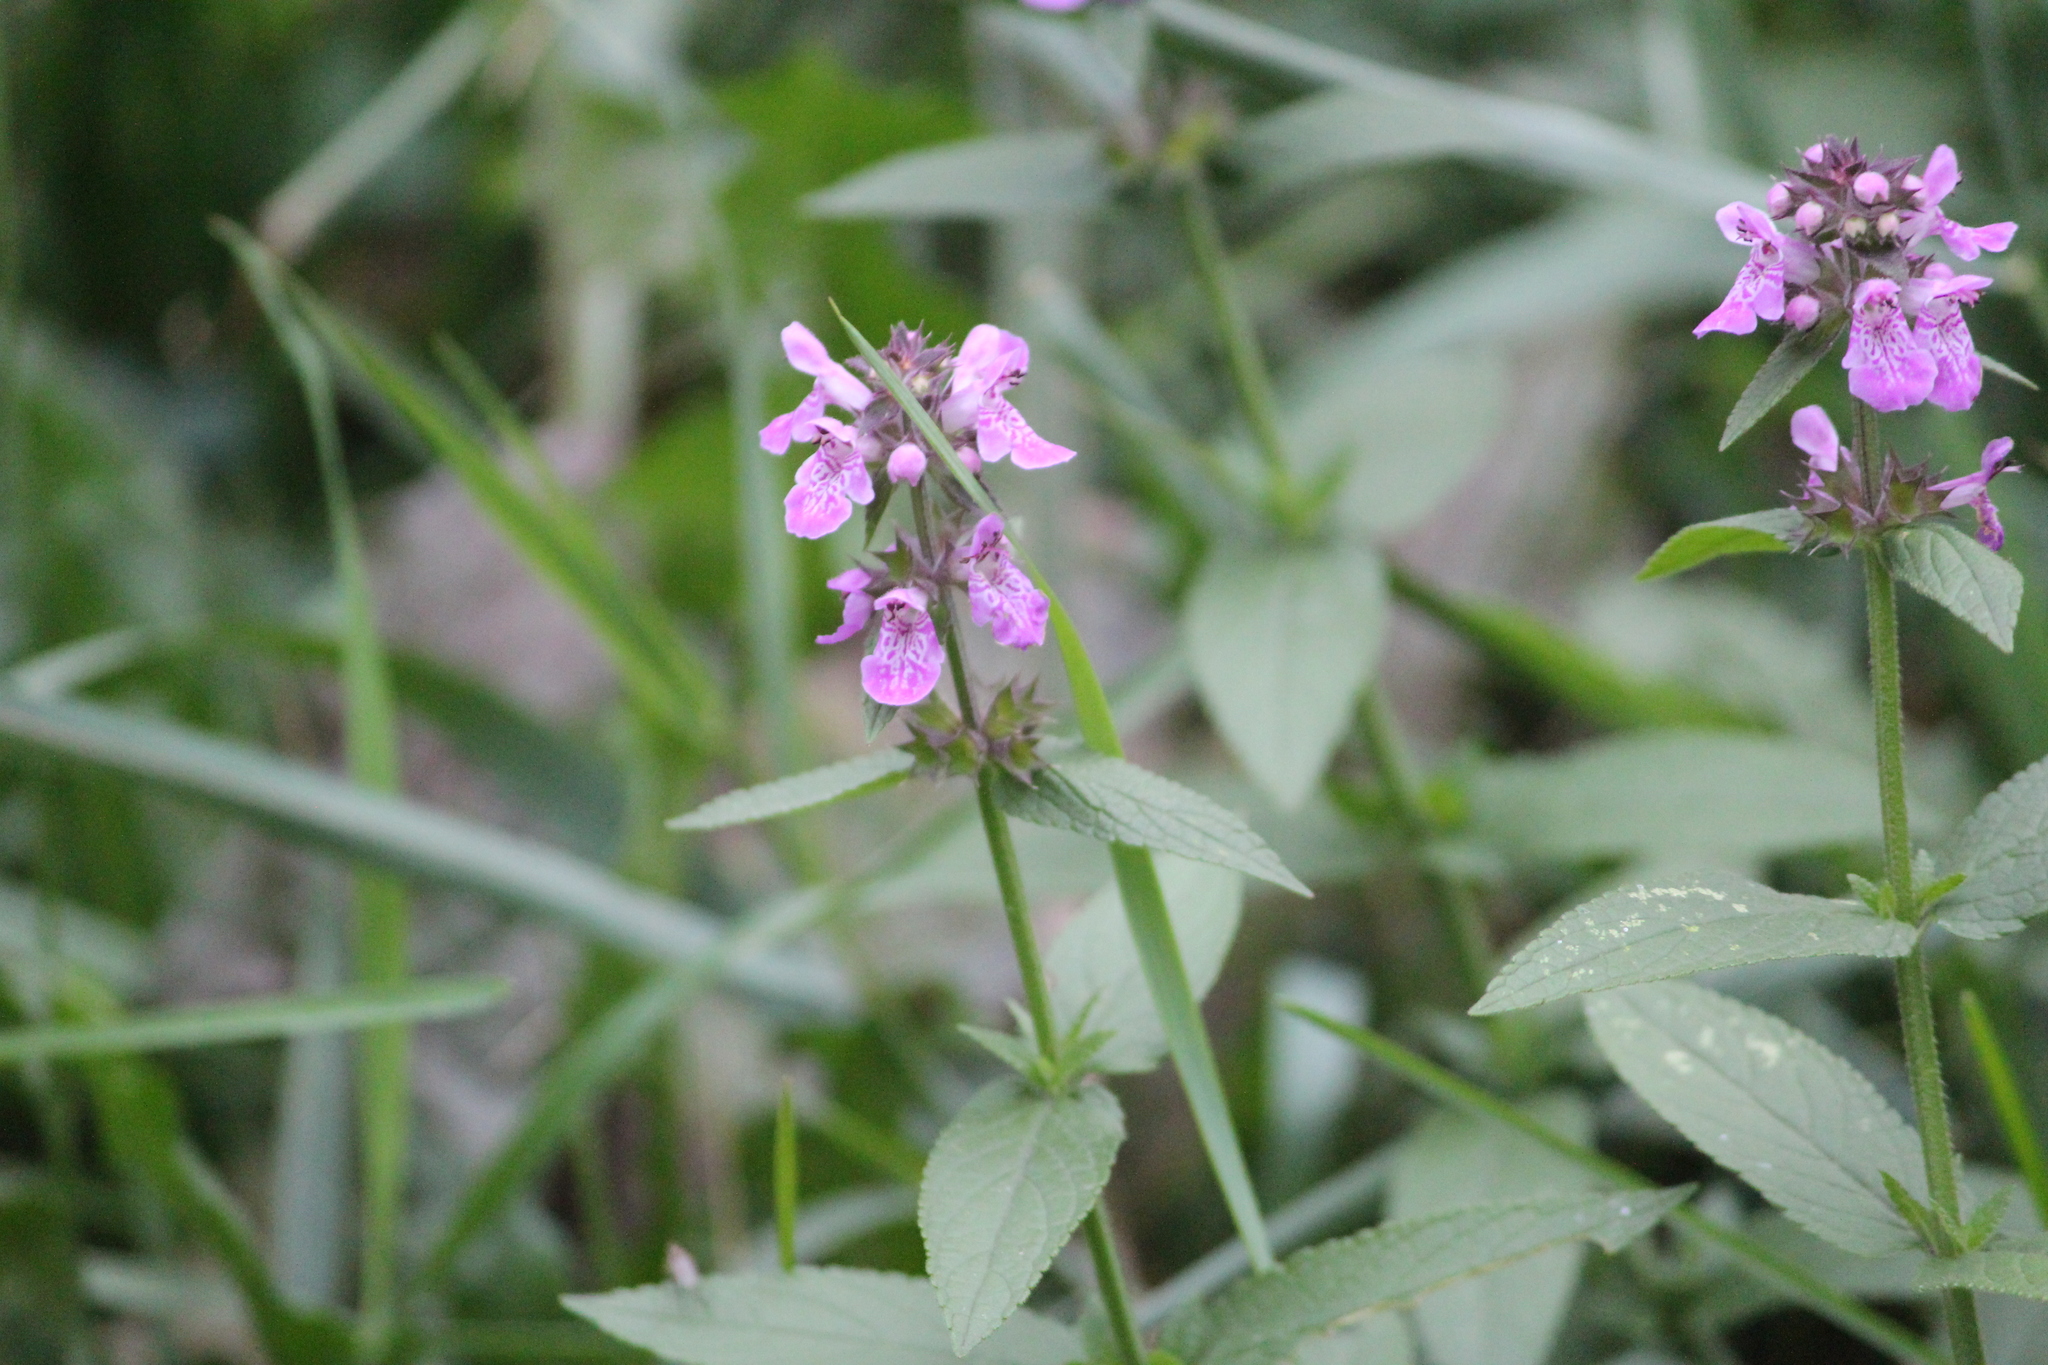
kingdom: Plantae
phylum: Tracheophyta
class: Magnoliopsida
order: Lamiales
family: Lamiaceae
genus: Stachys
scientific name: Stachys palustris
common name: Marsh woundwort
